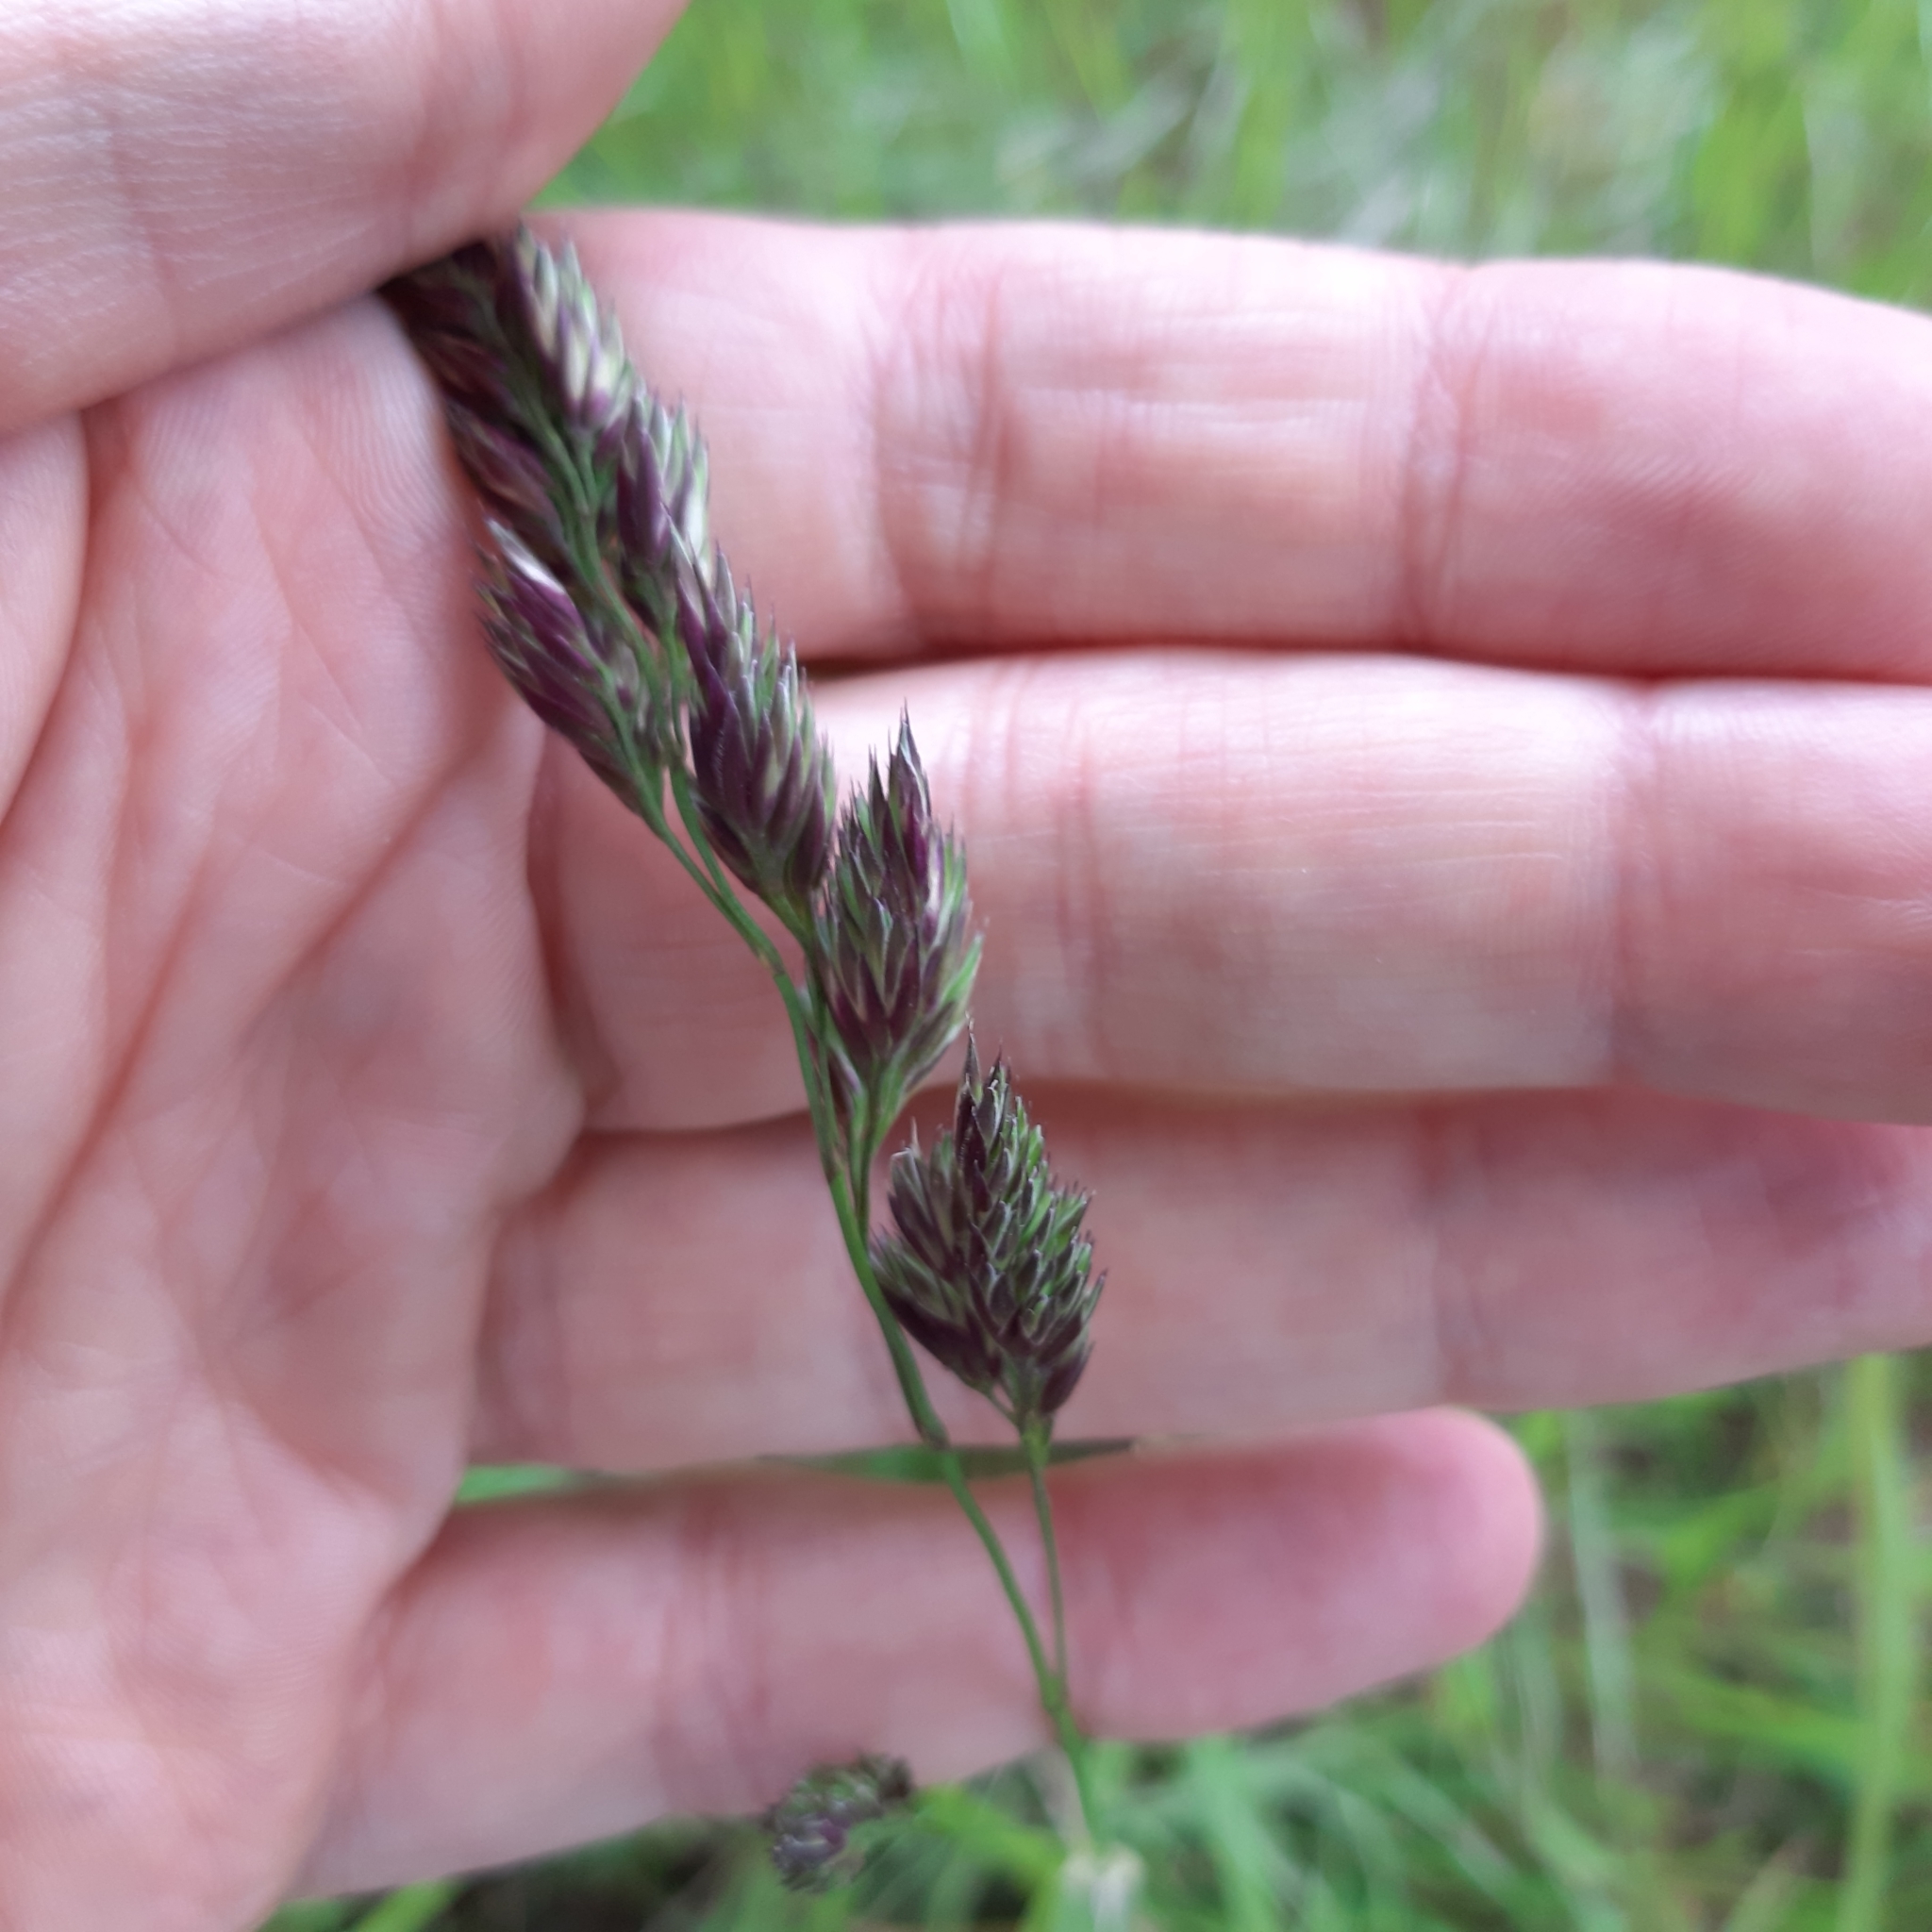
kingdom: Plantae
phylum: Tracheophyta
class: Liliopsida
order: Poales
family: Poaceae
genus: Dactylis
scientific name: Dactylis glomerata
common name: Orchardgrass
